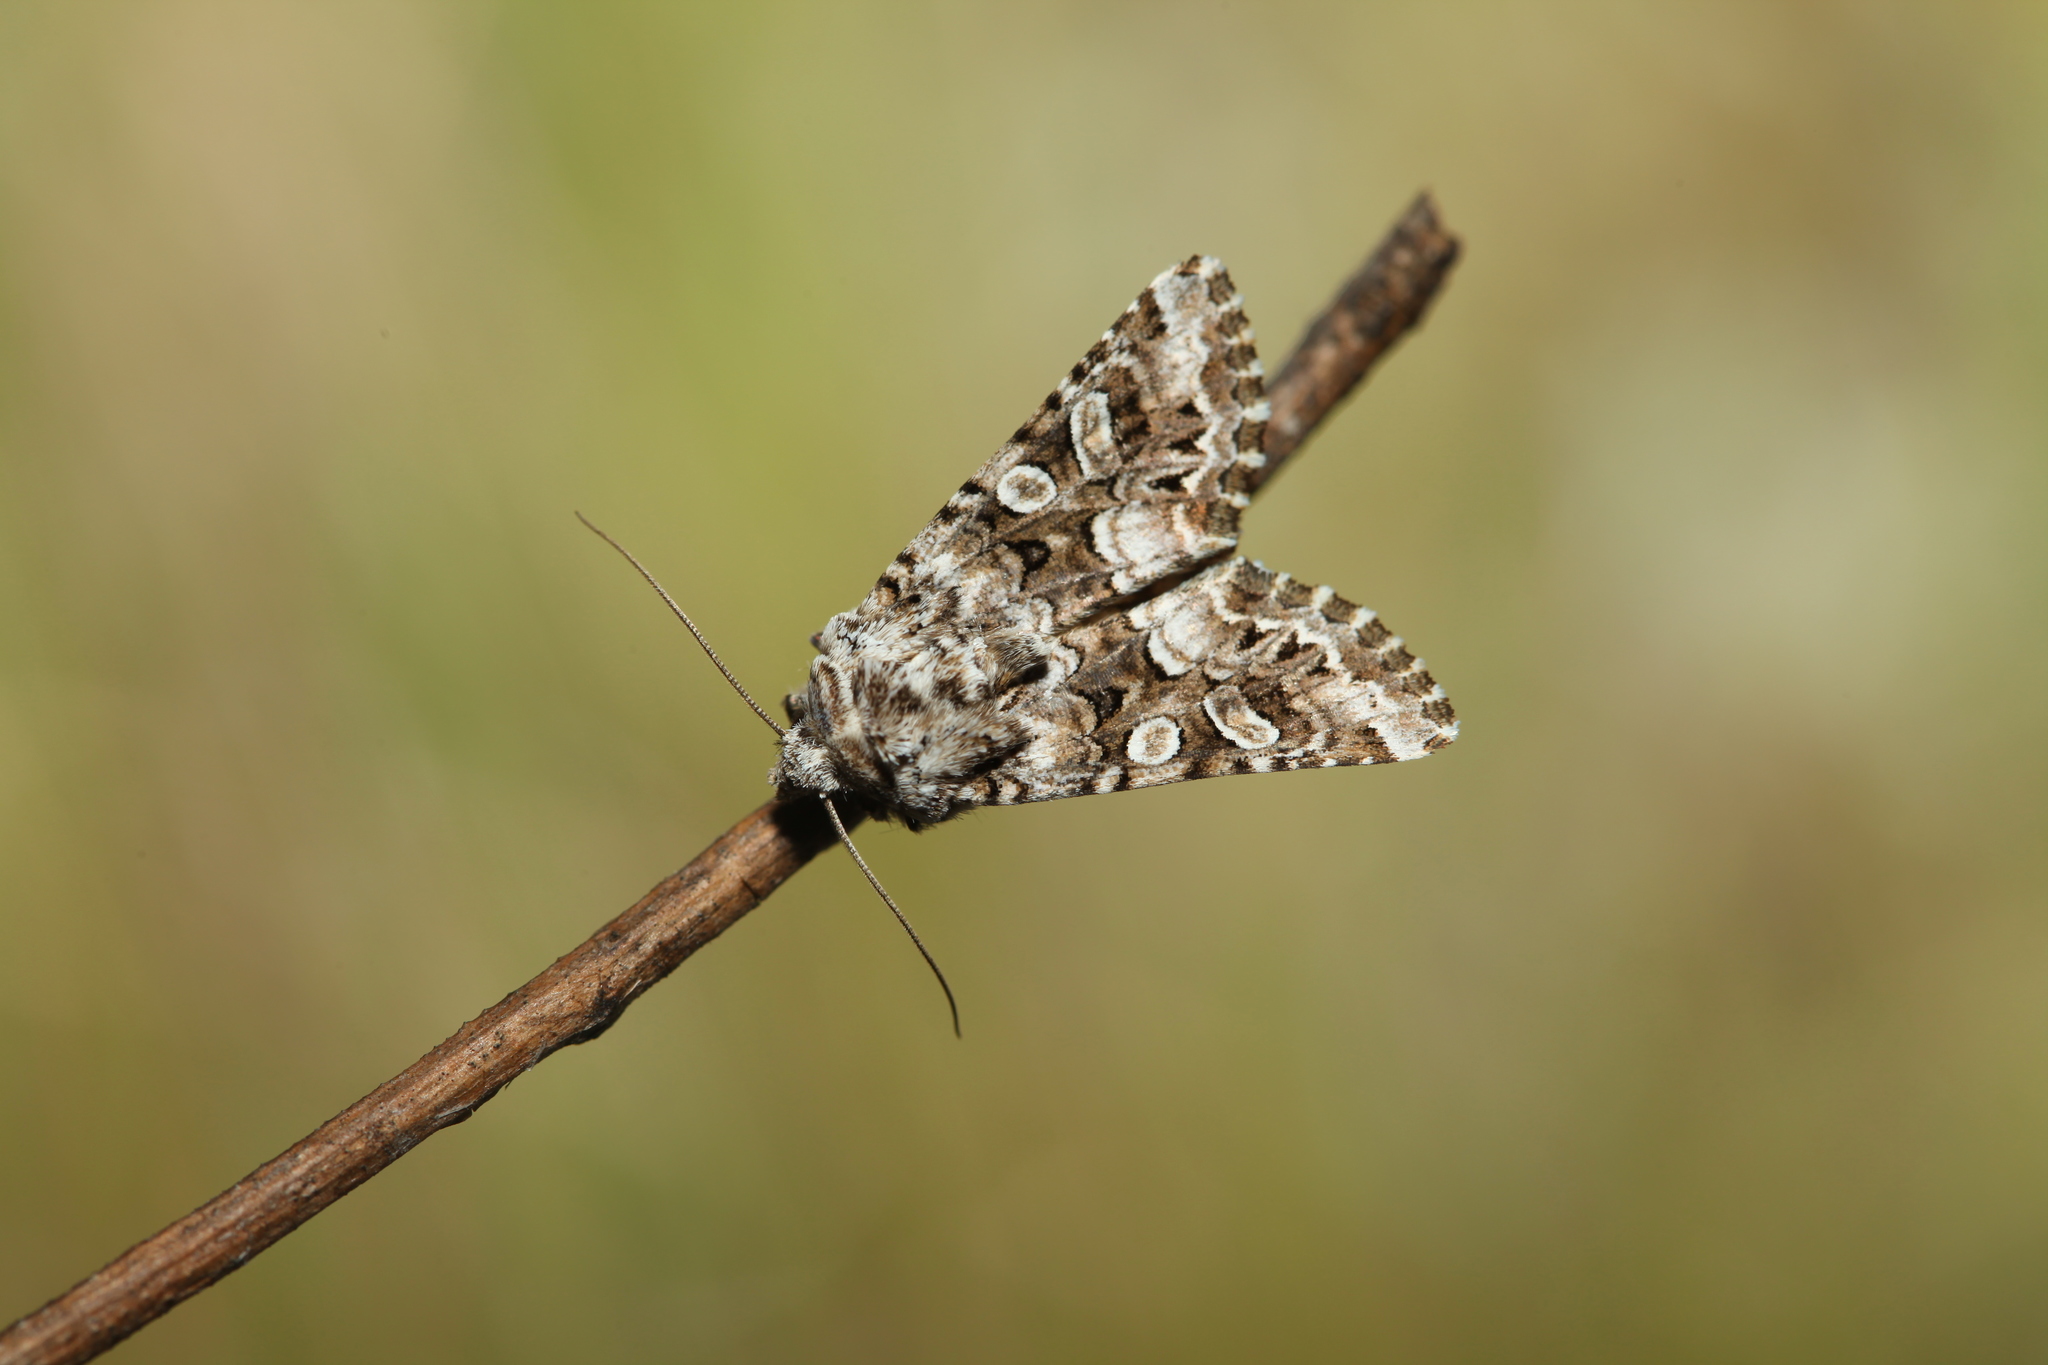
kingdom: Animalia
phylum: Arthropoda
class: Insecta
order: Lepidoptera
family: Noctuidae
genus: Hadena
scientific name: Hadena perplexa
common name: Tawny shears
